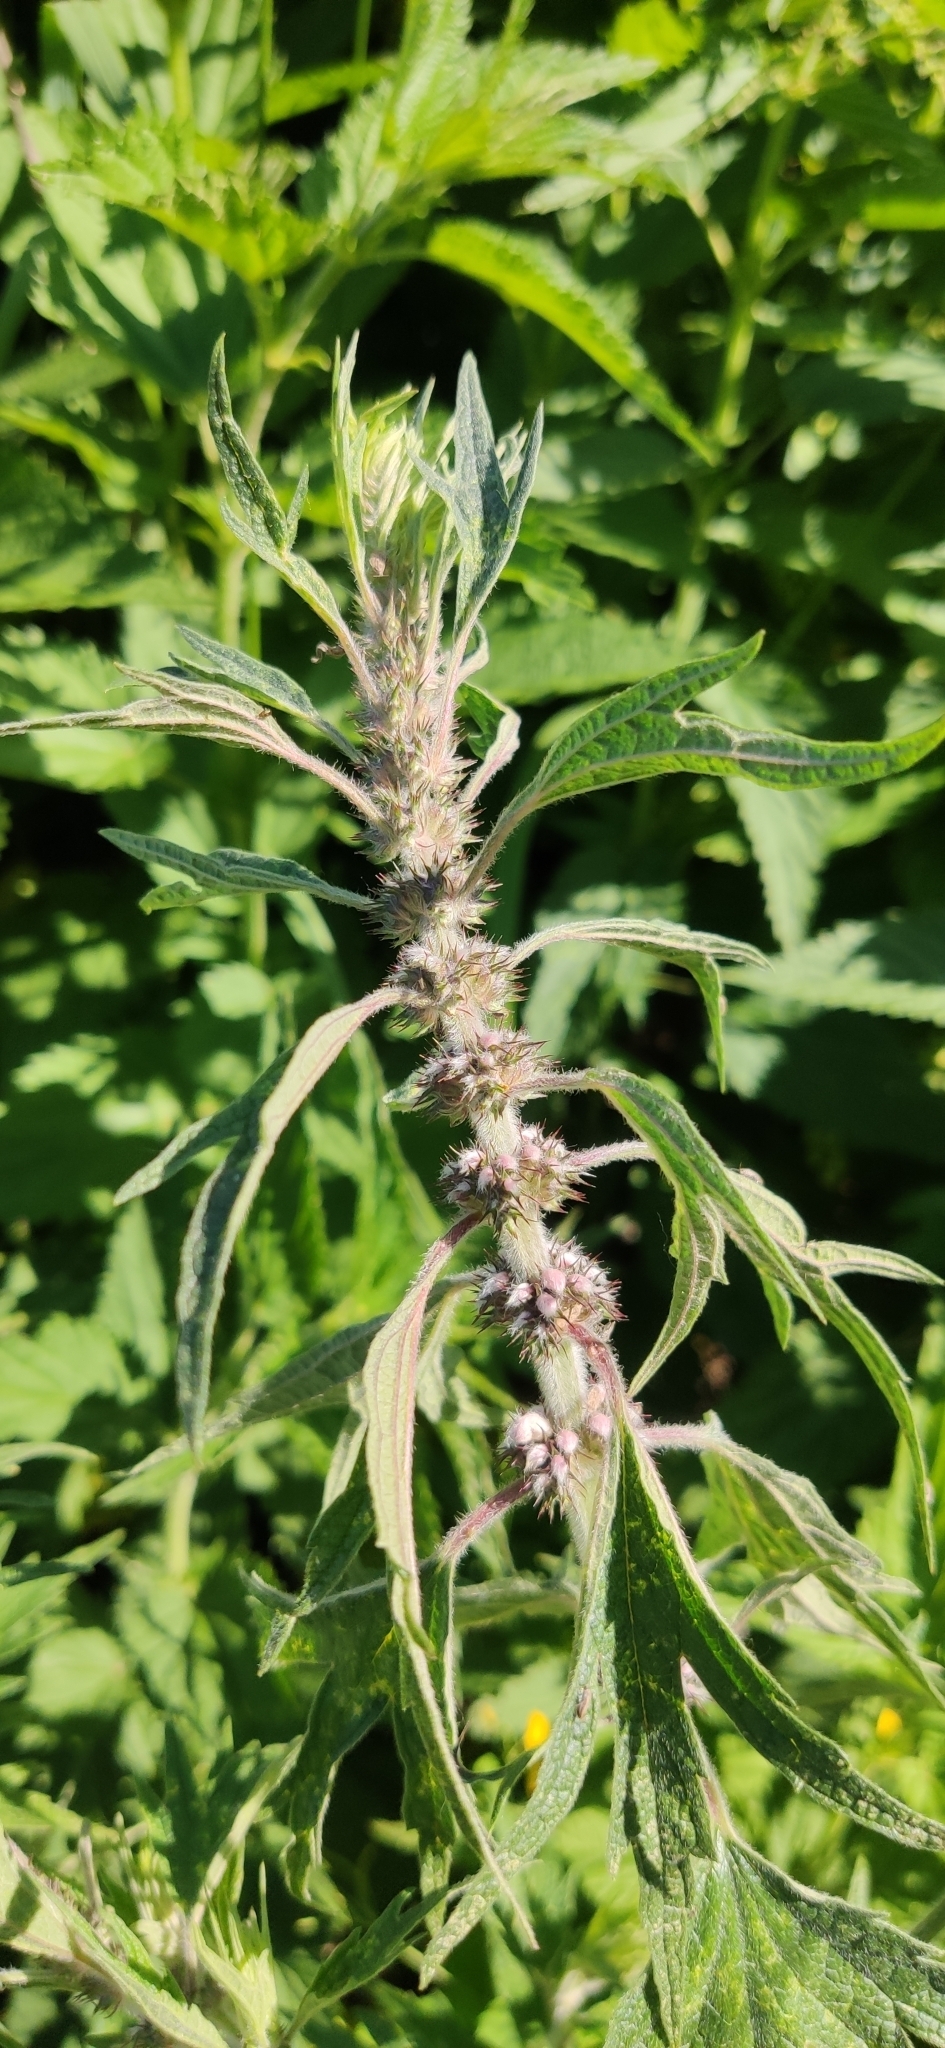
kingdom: Plantae
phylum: Tracheophyta
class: Magnoliopsida
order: Lamiales
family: Lamiaceae
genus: Leonurus
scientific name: Leonurus quinquelobatus
